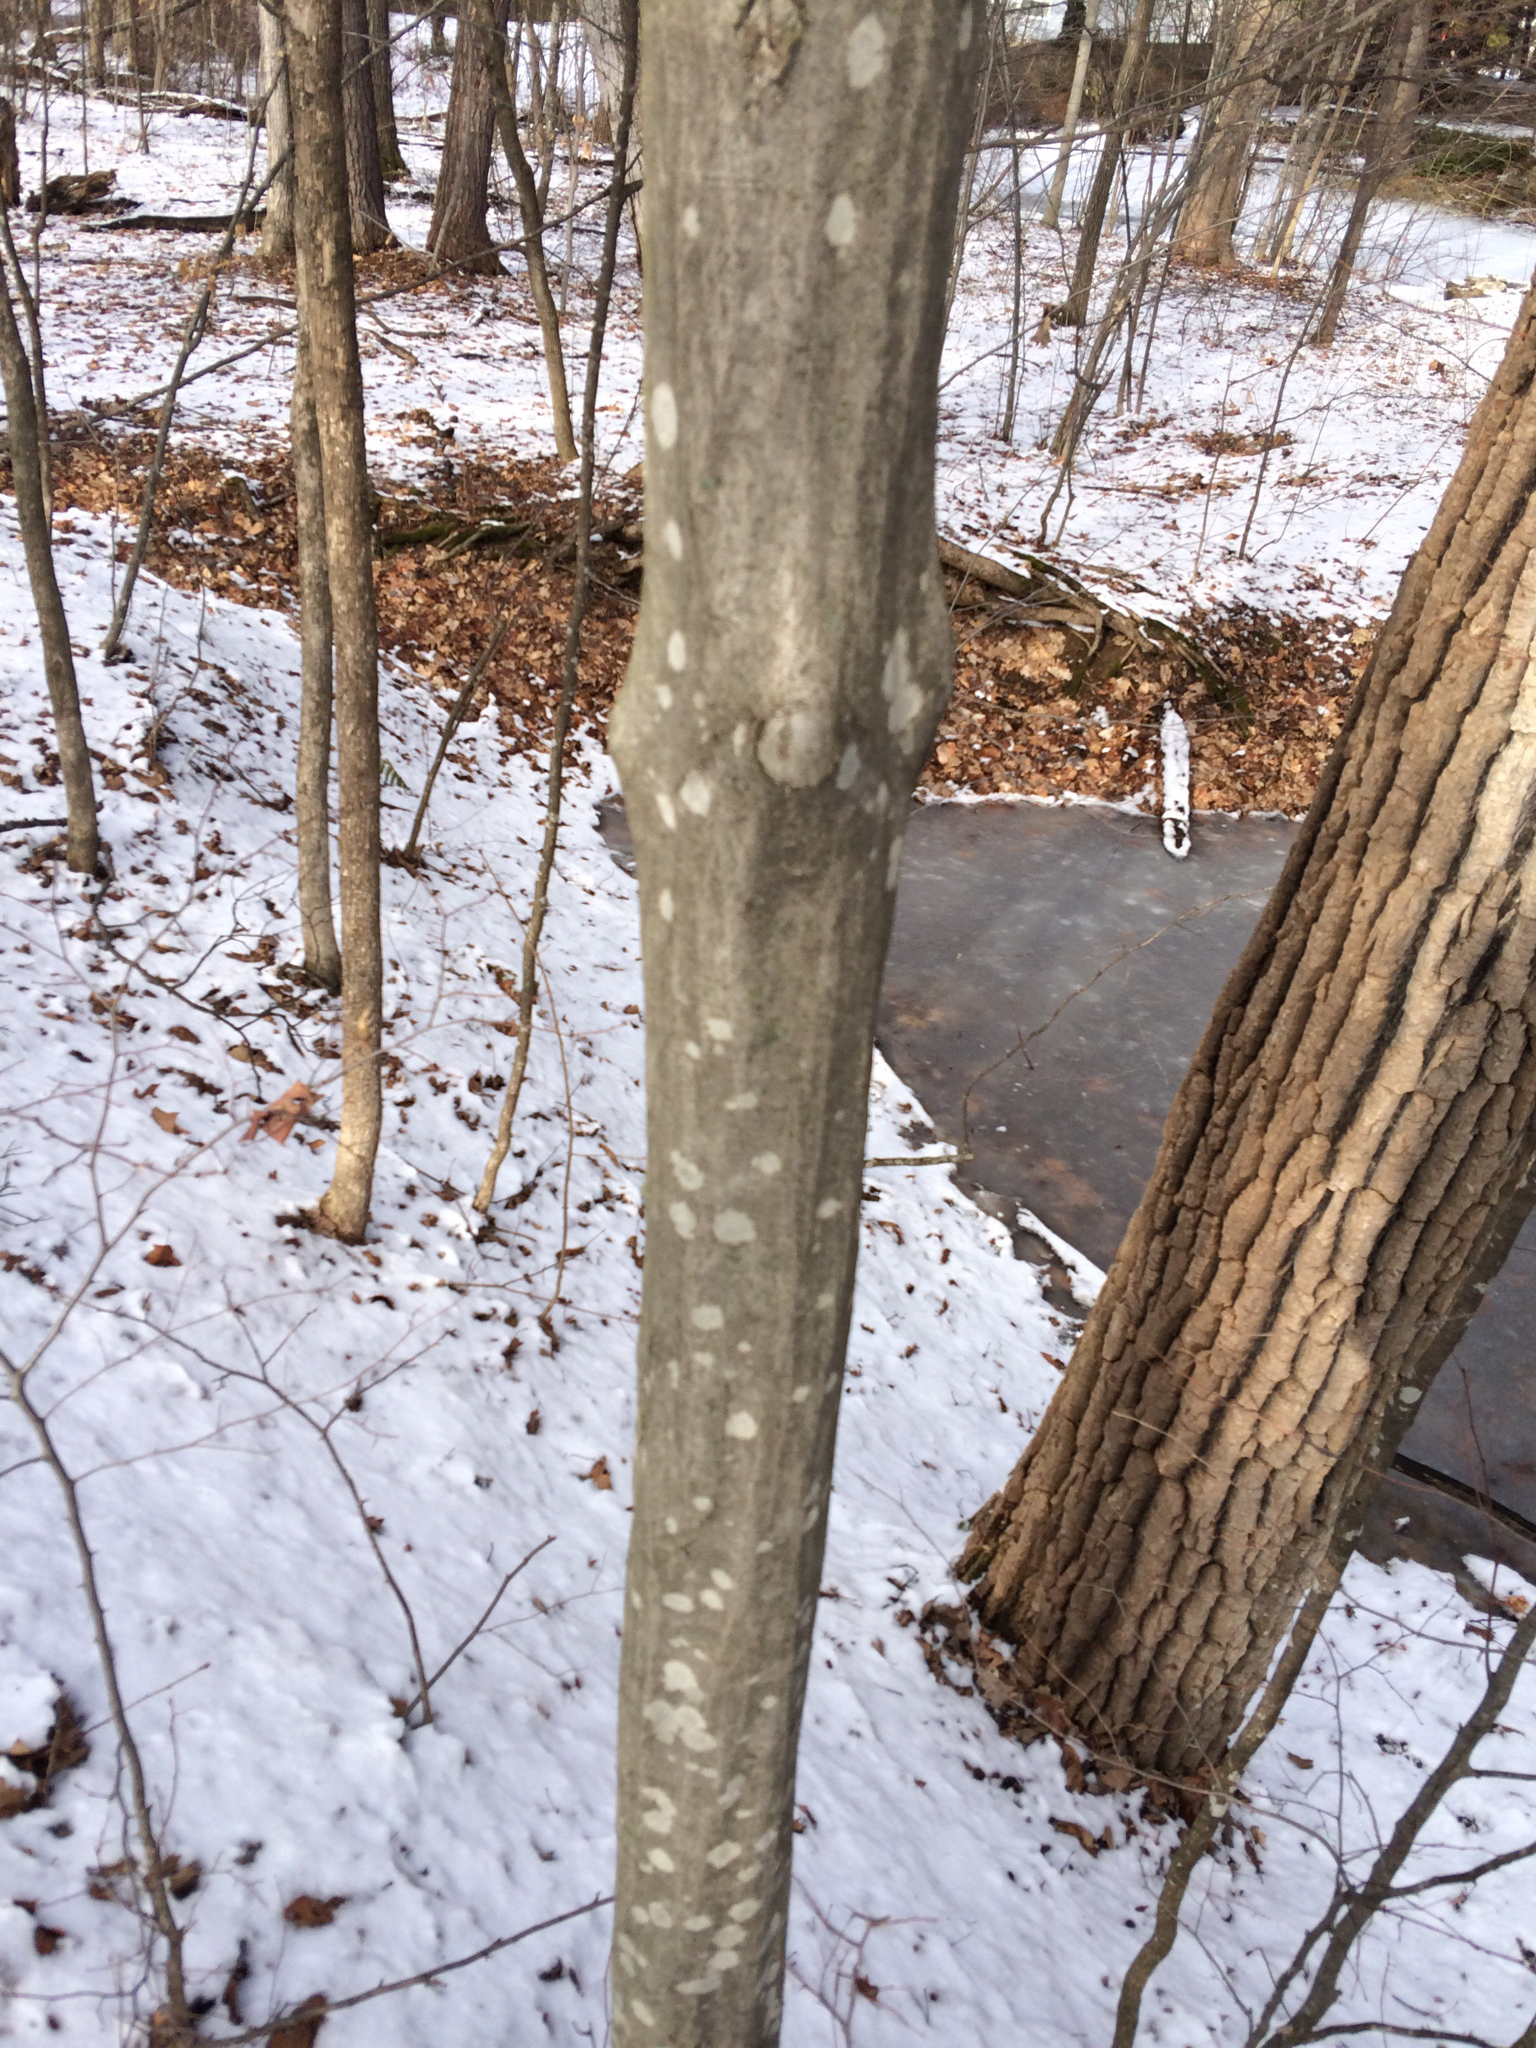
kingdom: Plantae
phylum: Tracheophyta
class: Magnoliopsida
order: Fagales
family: Betulaceae
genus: Carpinus
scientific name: Carpinus caroliniana
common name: American hornbeam
